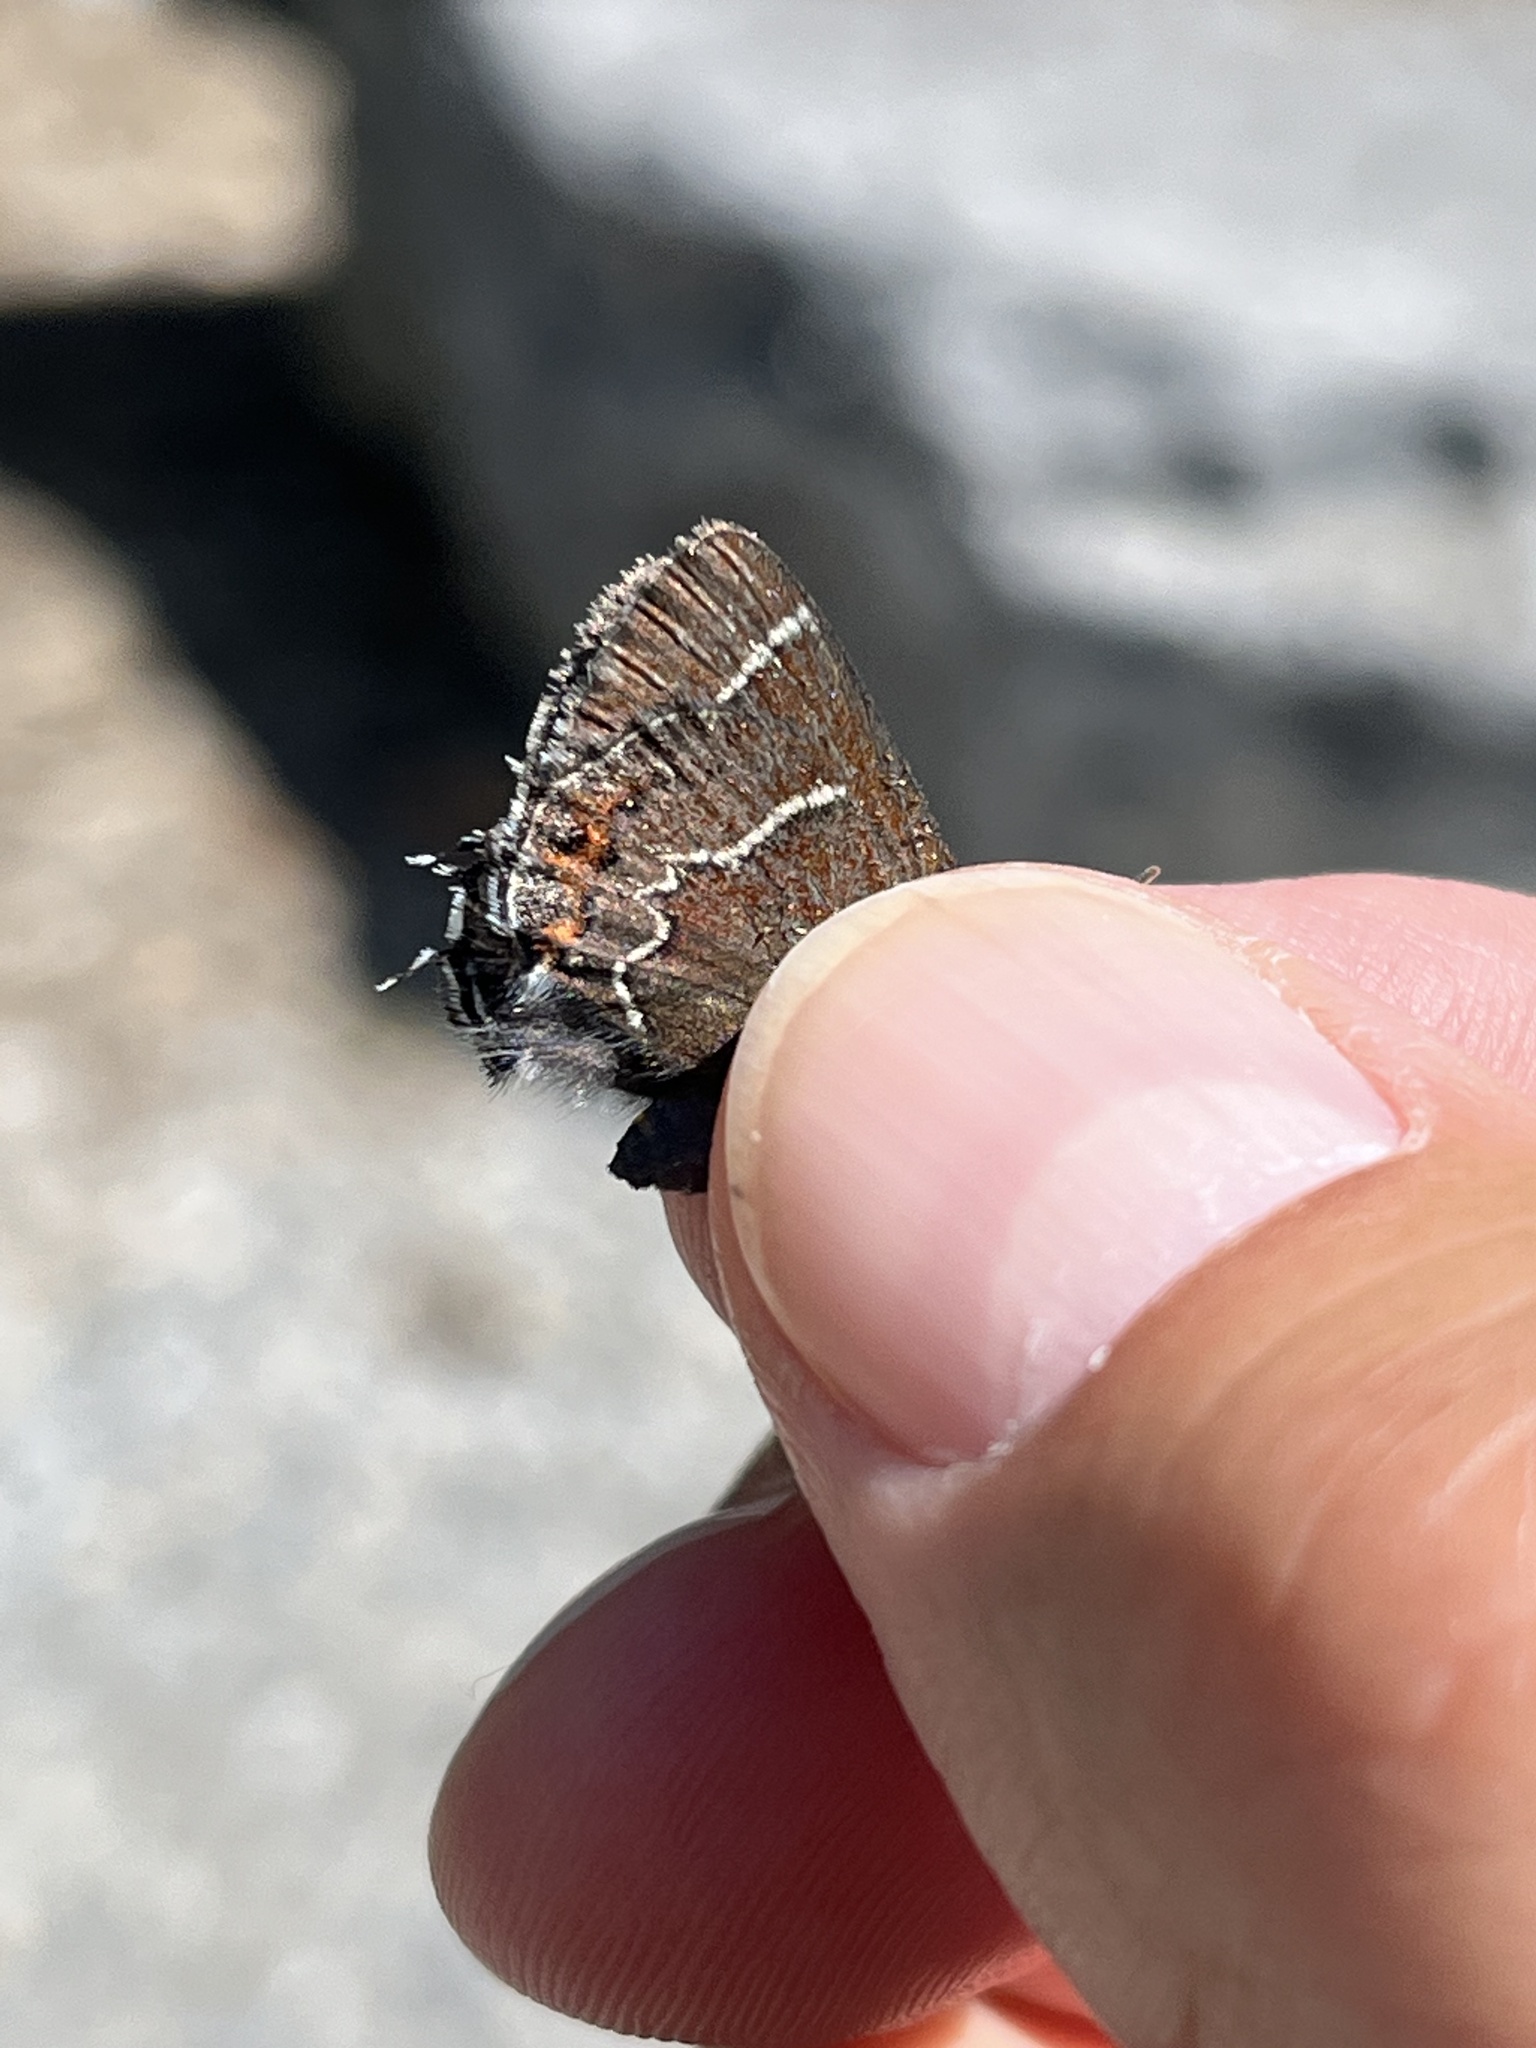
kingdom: Animalia
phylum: Arthropoda
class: Insecta
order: Lepidoptera
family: Lycaenidae
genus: Mitoura
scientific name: Mitoura spinetorum
